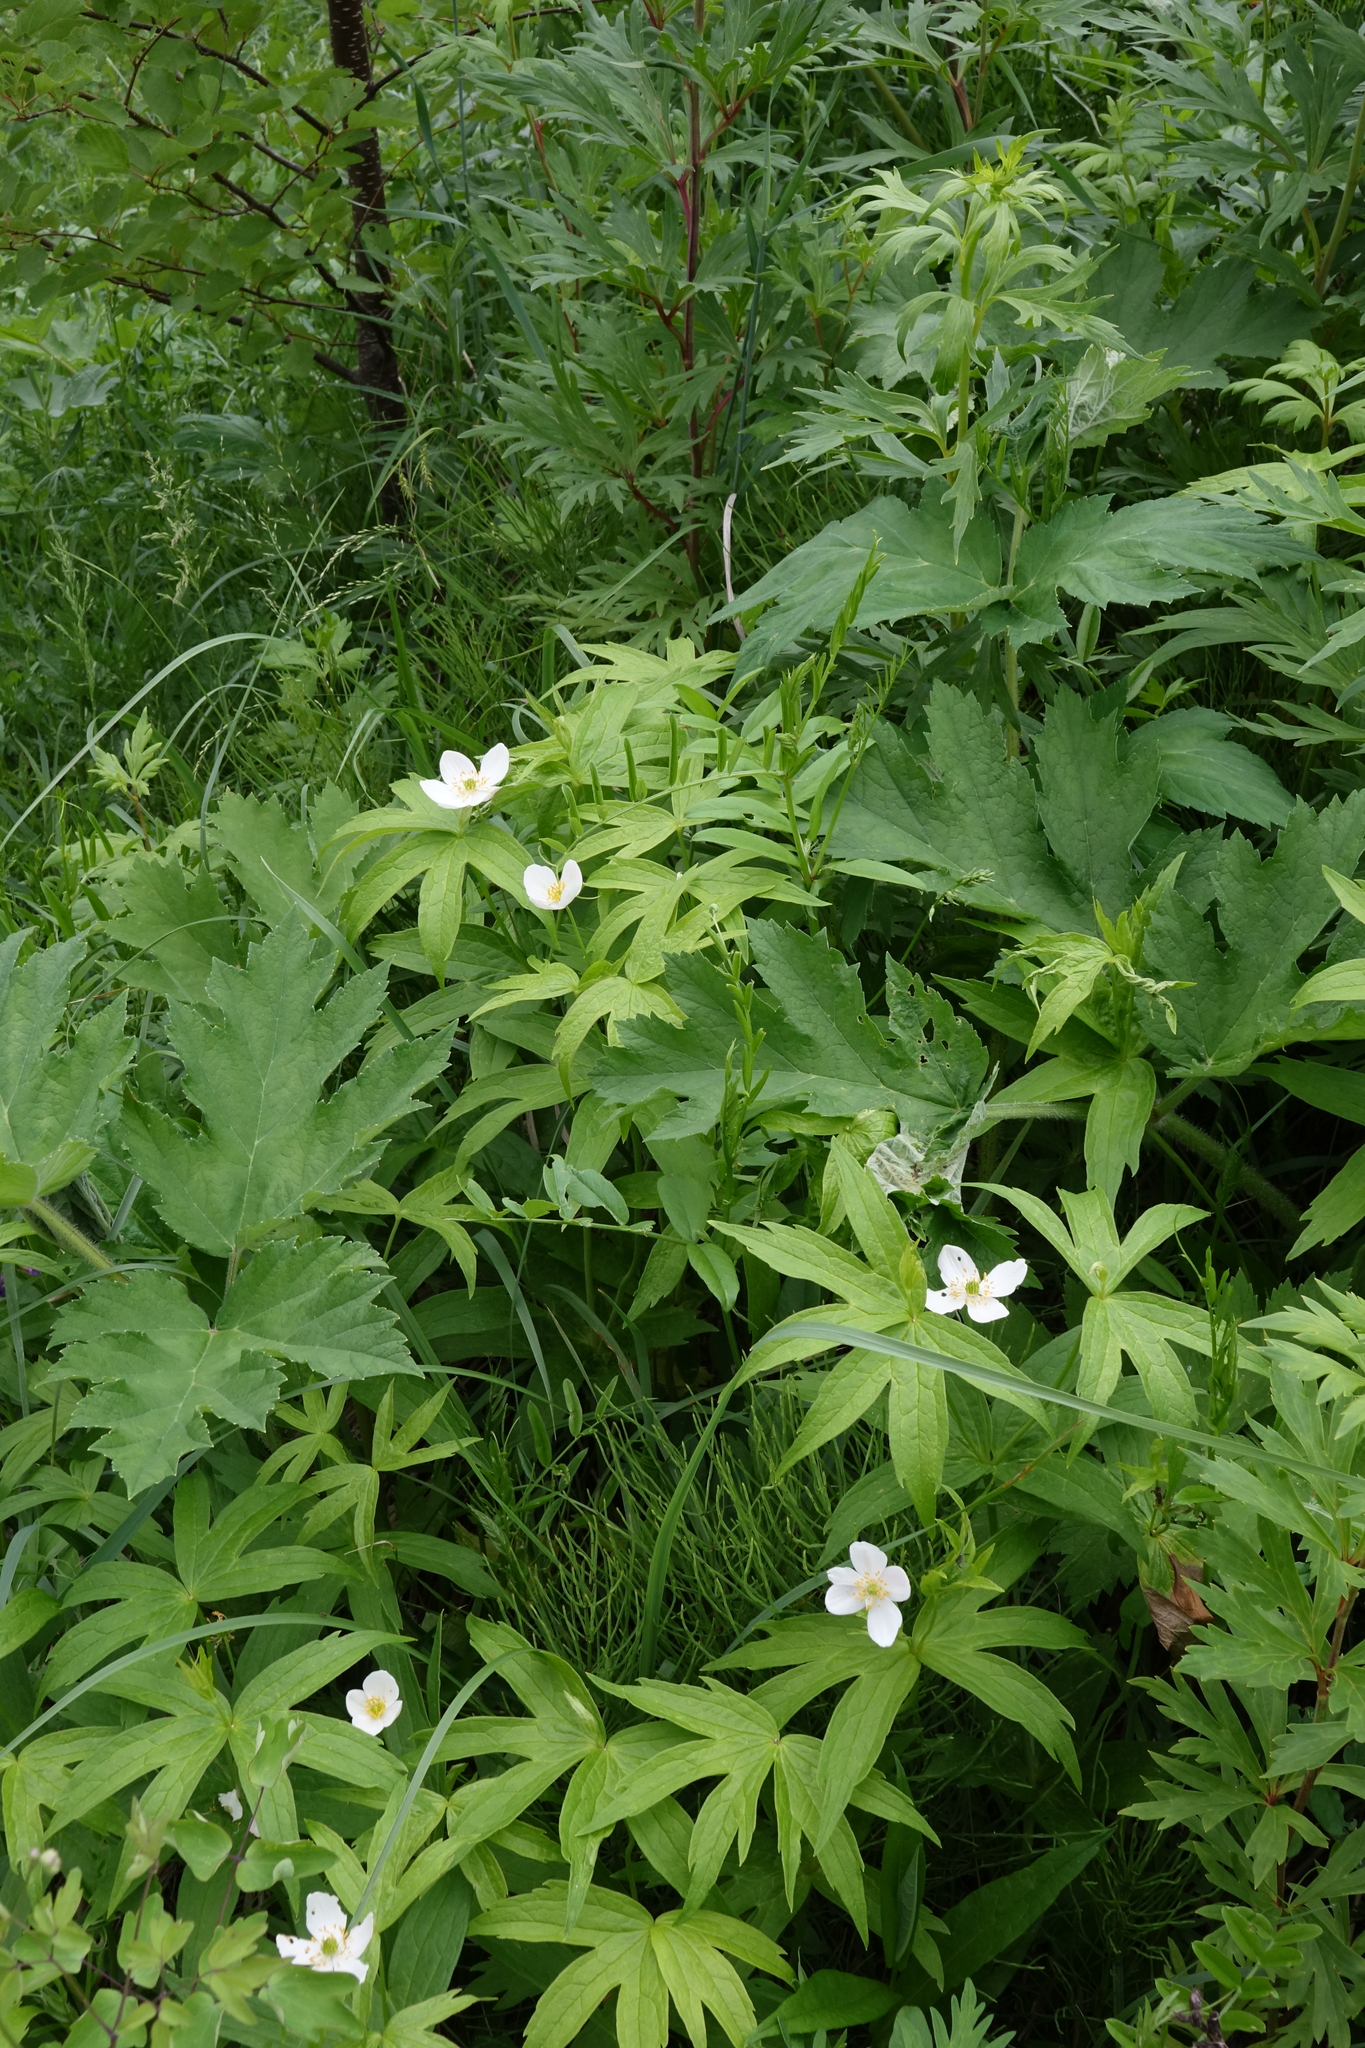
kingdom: Plantae
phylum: Tracheophyta
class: Magnoliopsida
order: Apiales
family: Apiaceae
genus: Heracleum
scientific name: Heracleum dissectum
